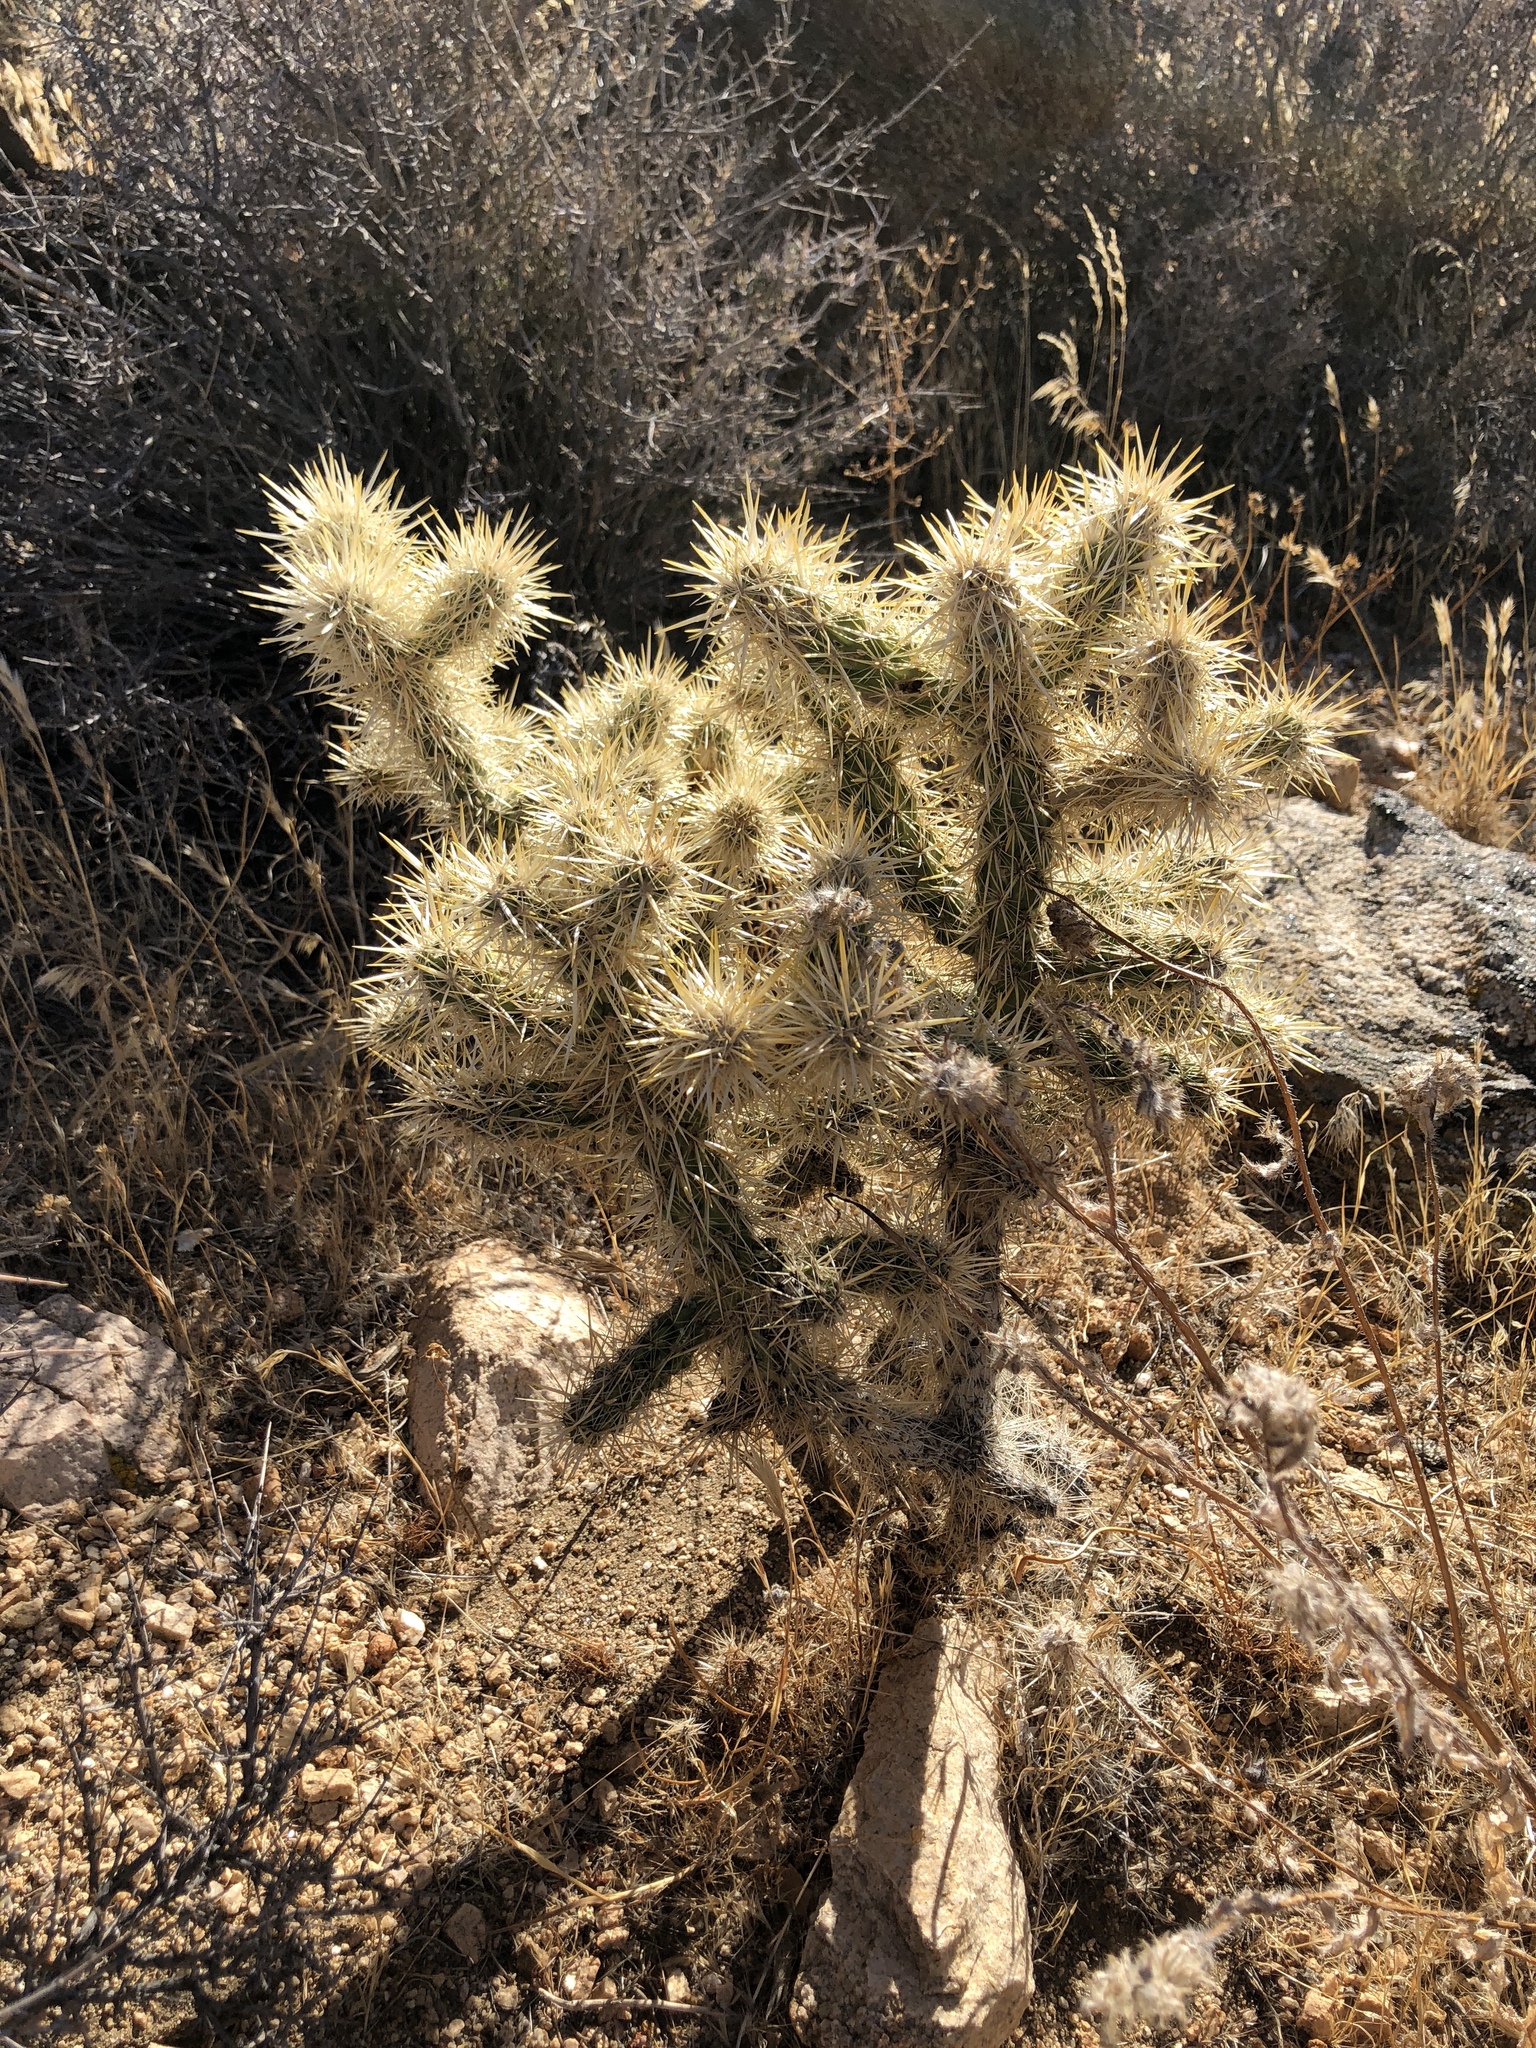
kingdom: Plantae
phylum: Tracheophyta
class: Magnoliopsida
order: Caryophyllales
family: Cactaceae
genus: Cylindropuntia
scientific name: Cylindropuntia echinocarpa
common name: Ground cholla
